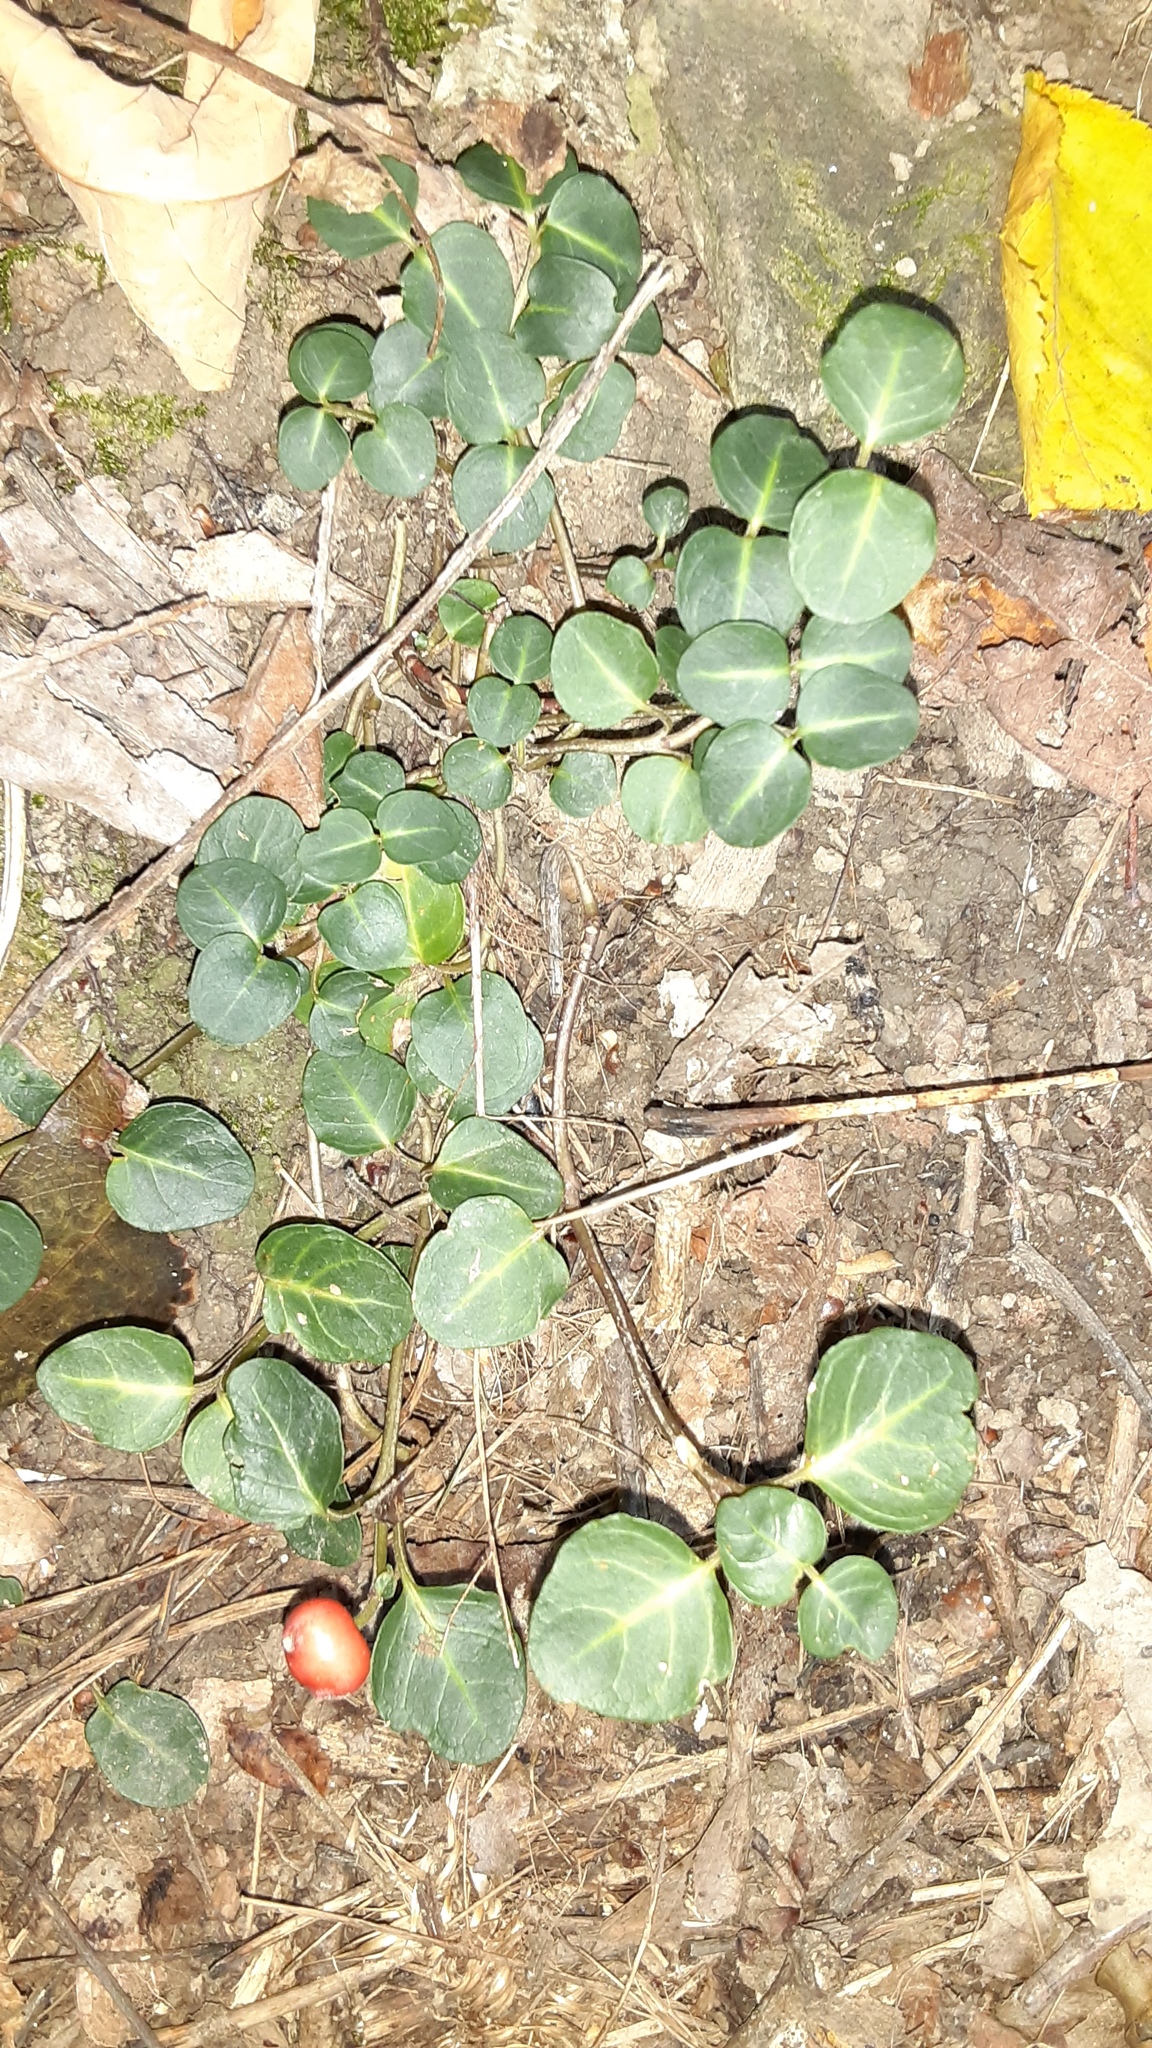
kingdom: Plantae
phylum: Tracheophyta
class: Magnoliopsida
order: Gentianales
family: Rubiaceae
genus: Mitchella
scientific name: Mitchella repens
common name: Partridge-berry
